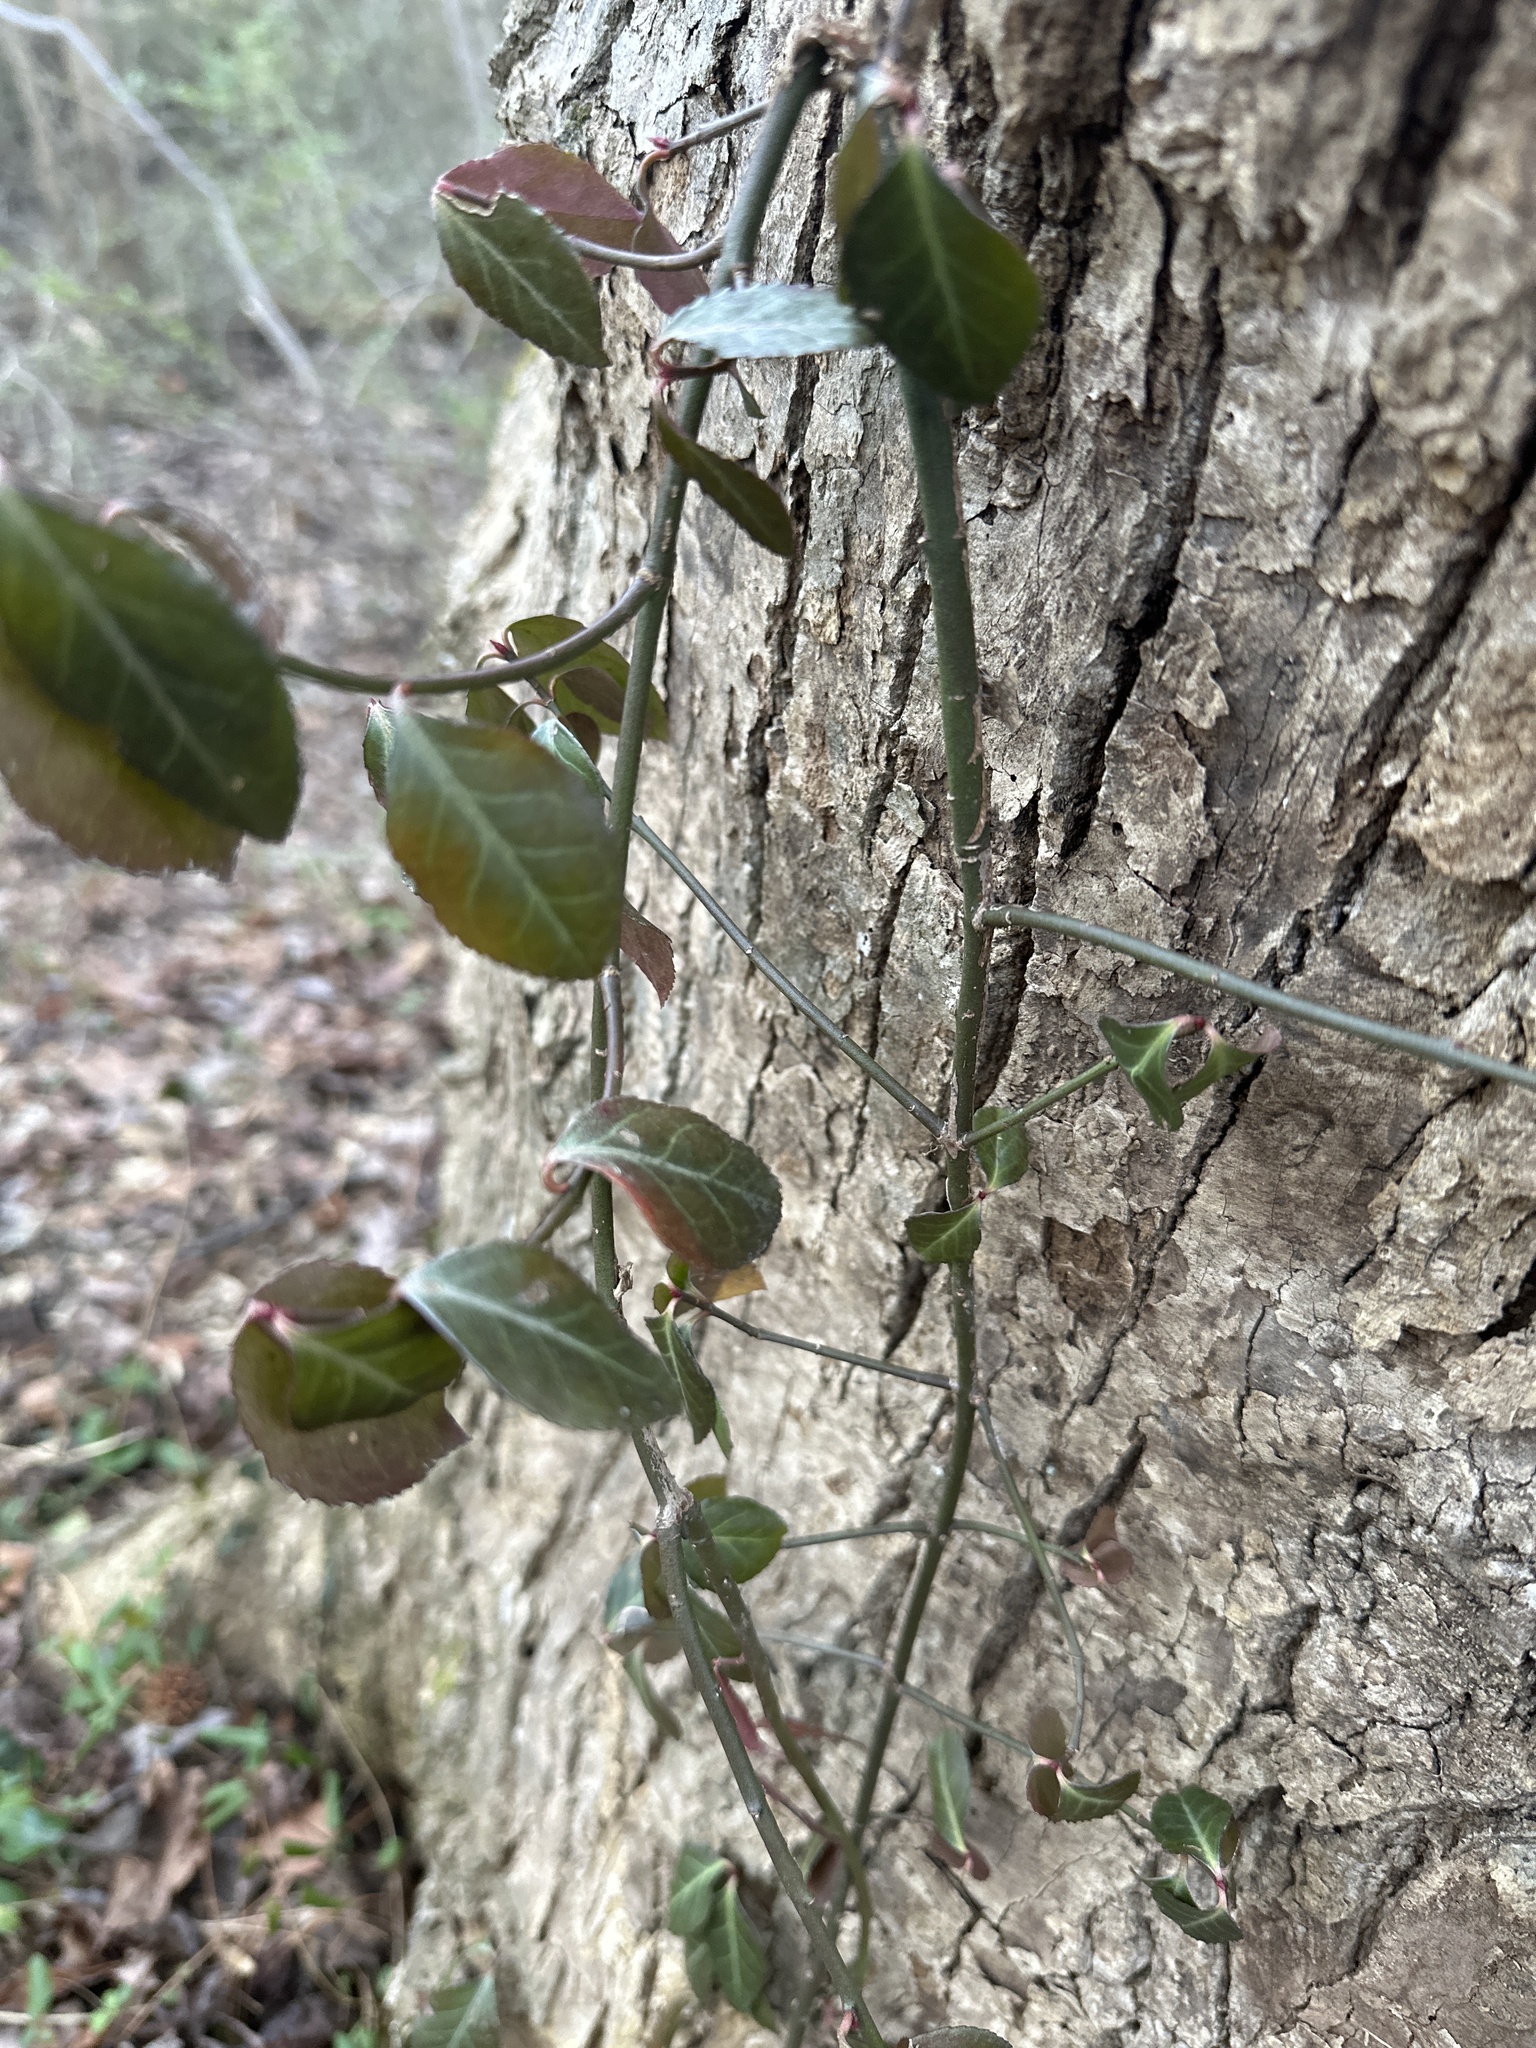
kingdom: Plantae
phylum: Tracheophyta
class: Magnoliopsida
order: Celastrales
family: Celastraceae
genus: Euonymus
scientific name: Euonymus fortunei
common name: Climbing euonymus
